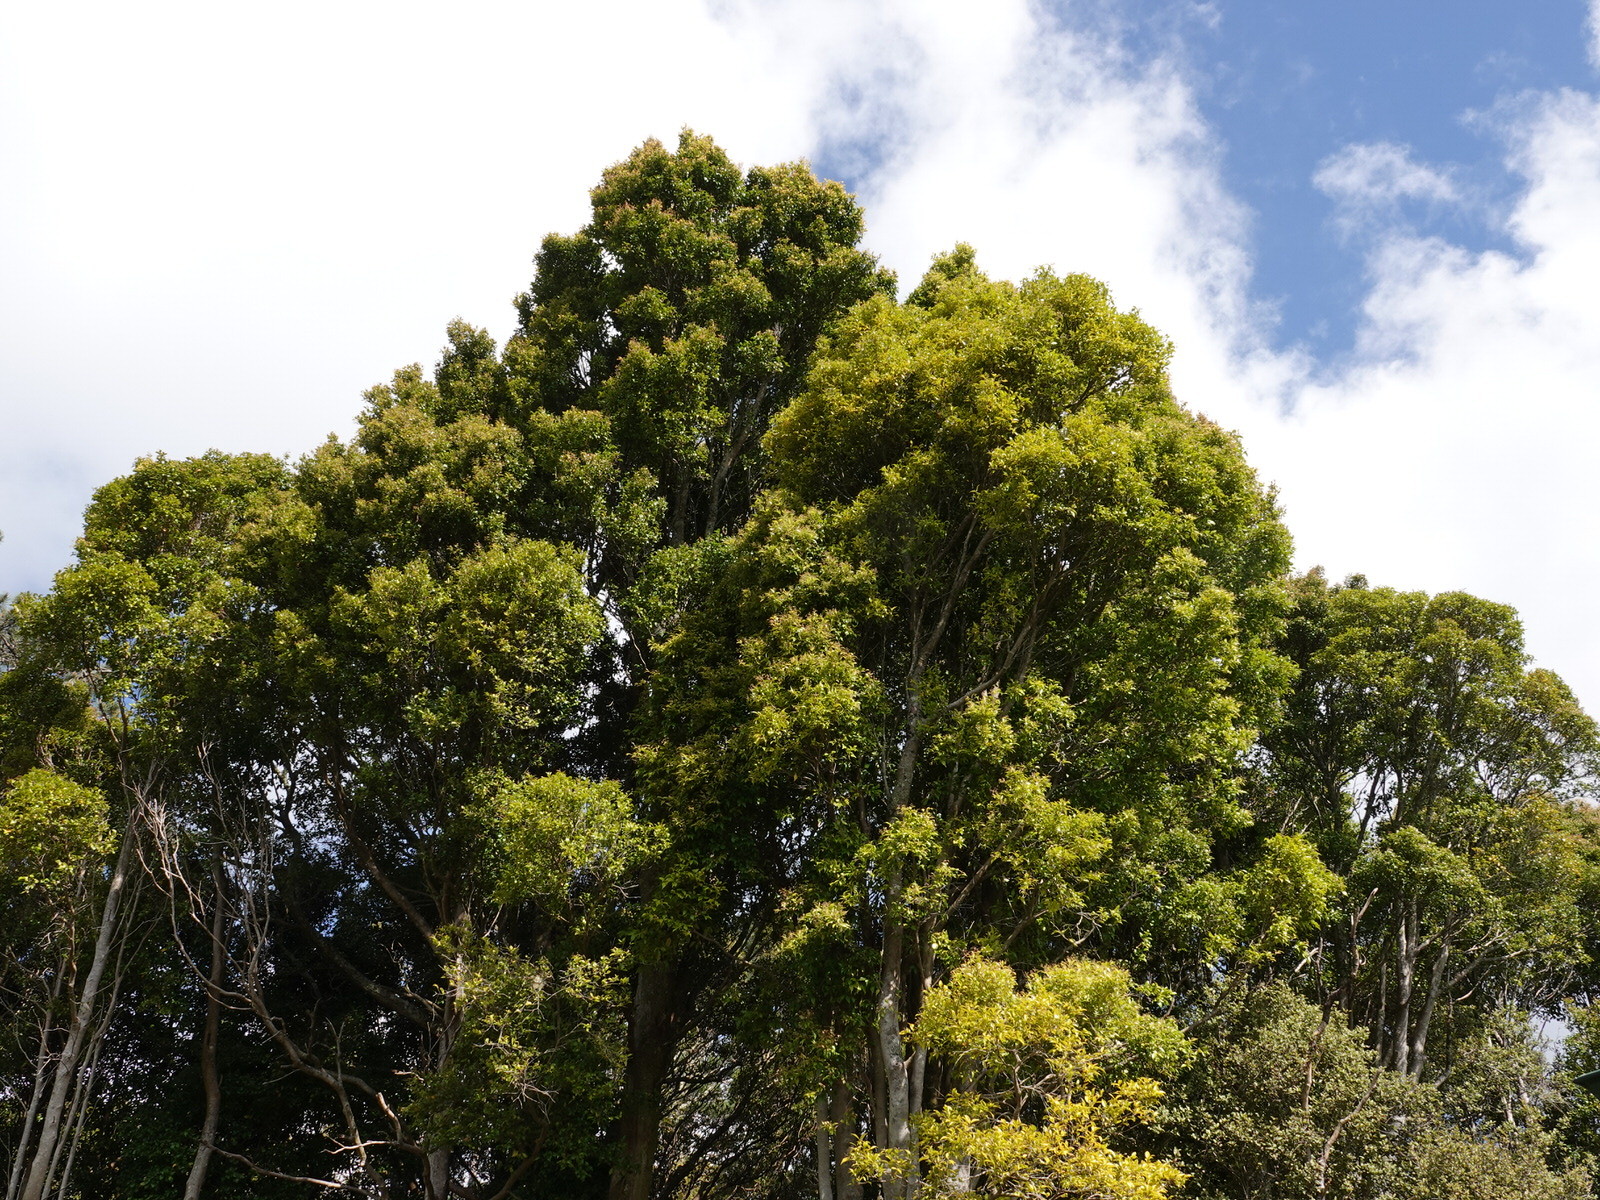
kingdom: Plantae
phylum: Tracheophyta
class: Magnoliopsida
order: Myrtales
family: Myrtaceae
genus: Syzygium
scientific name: Syzygium smithii
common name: Lilly-pilly
